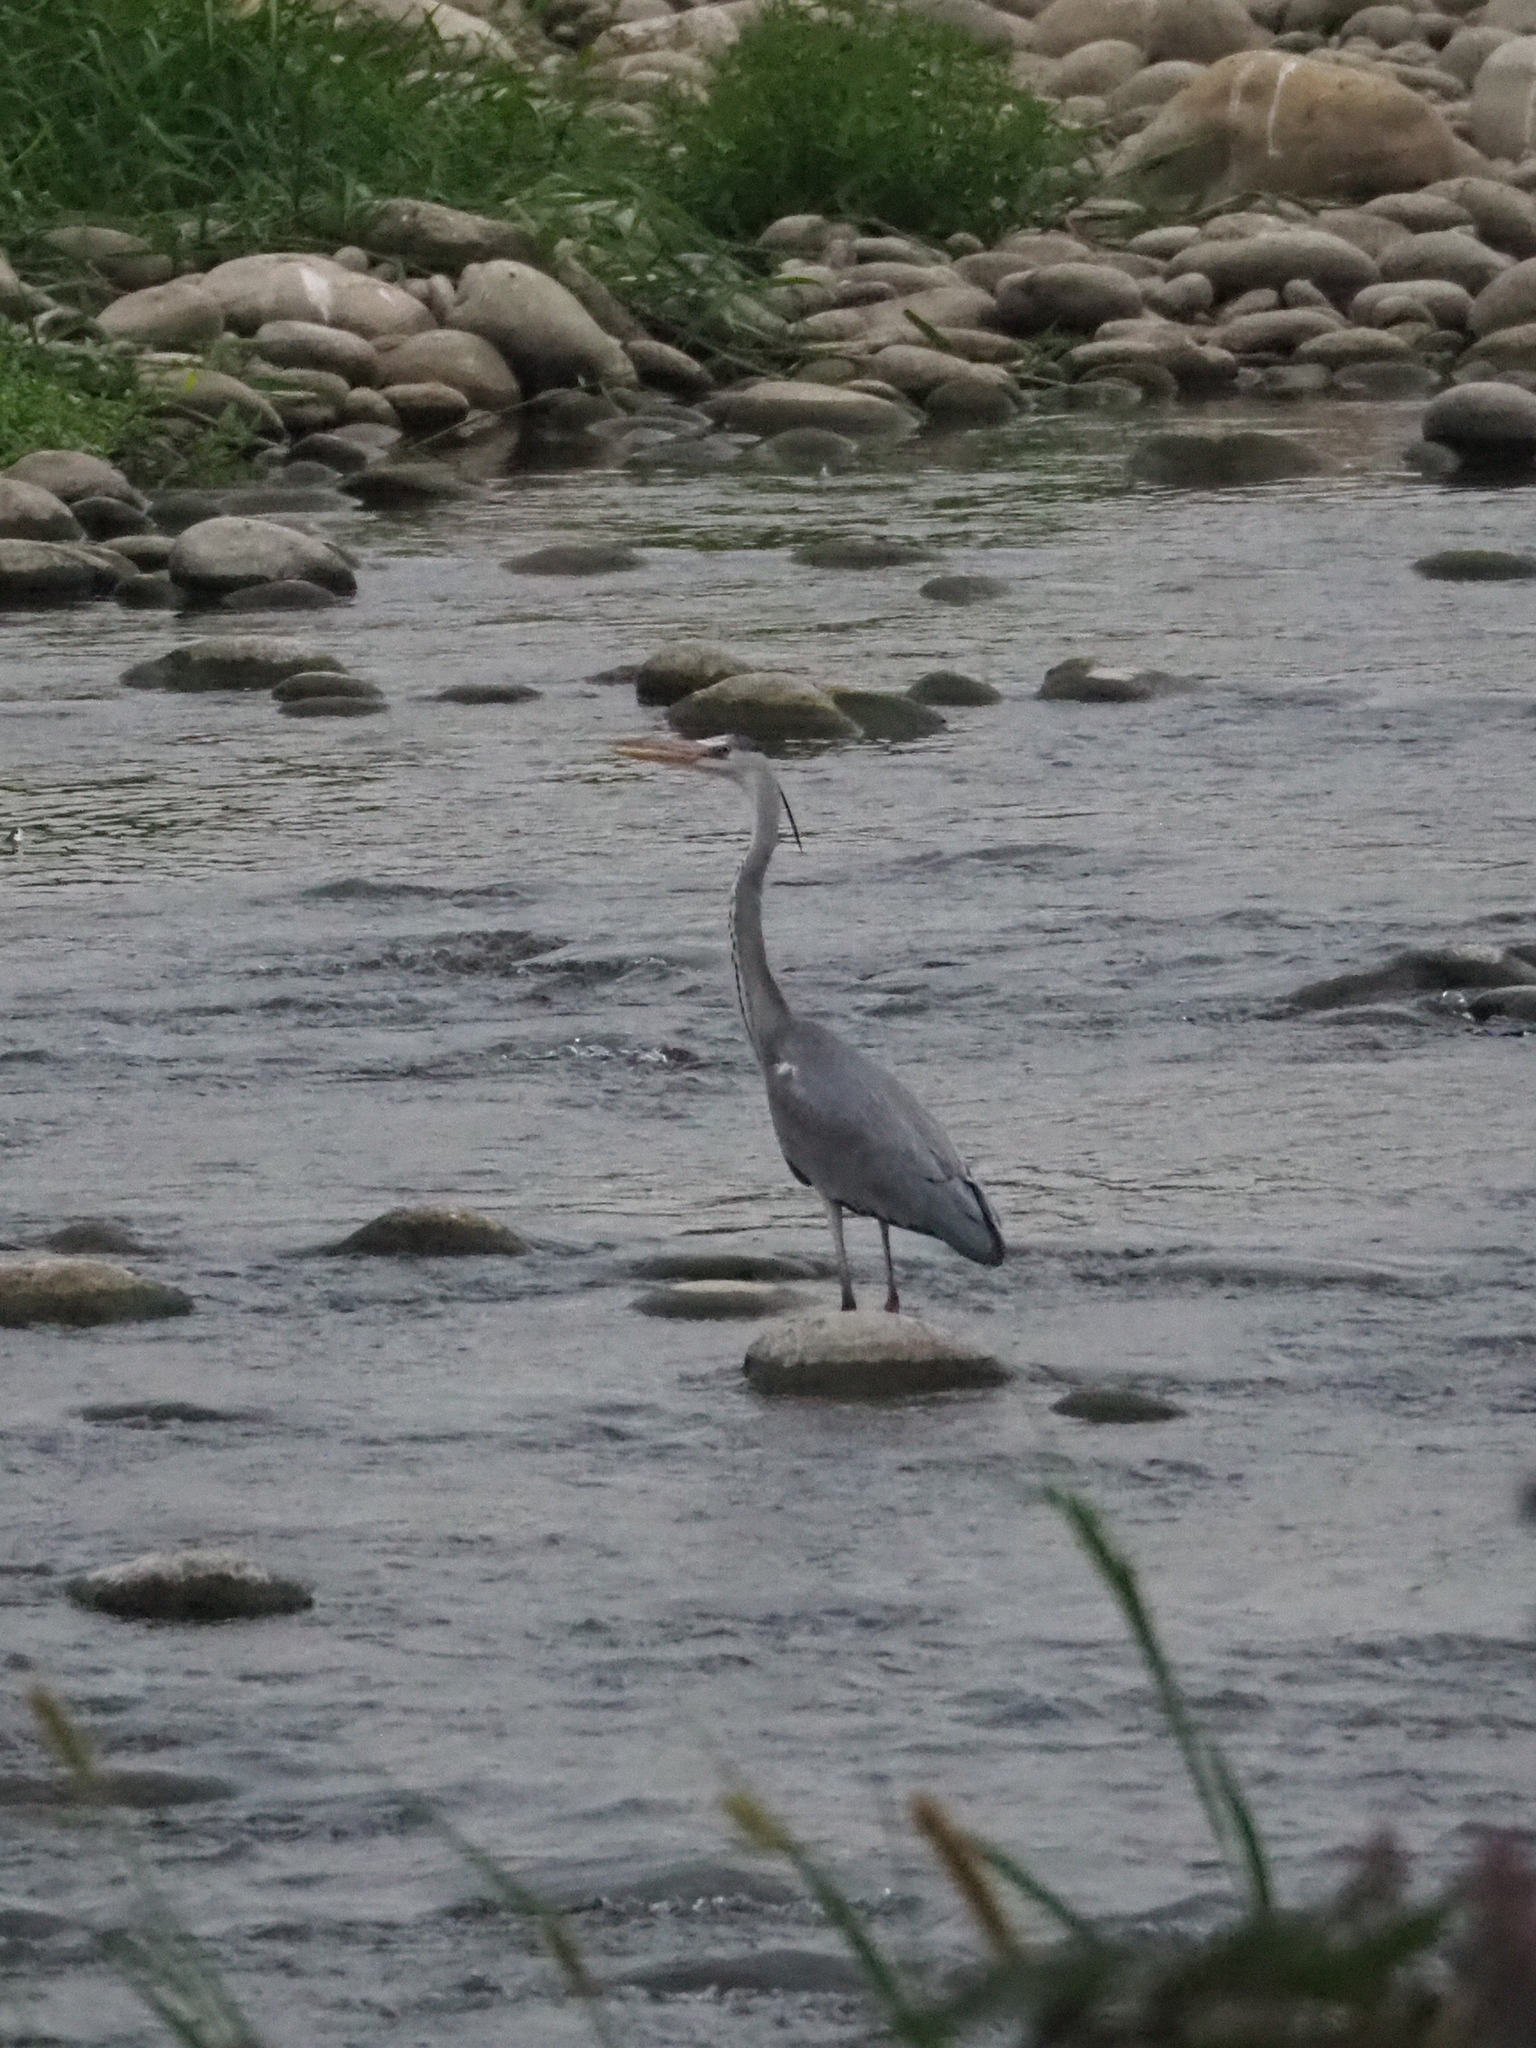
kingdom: Animalia
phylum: Chordata
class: Aves
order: Pelecaniformes
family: Ardeidae
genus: Ardea
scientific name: Ardea cinerea
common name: Grey heron
